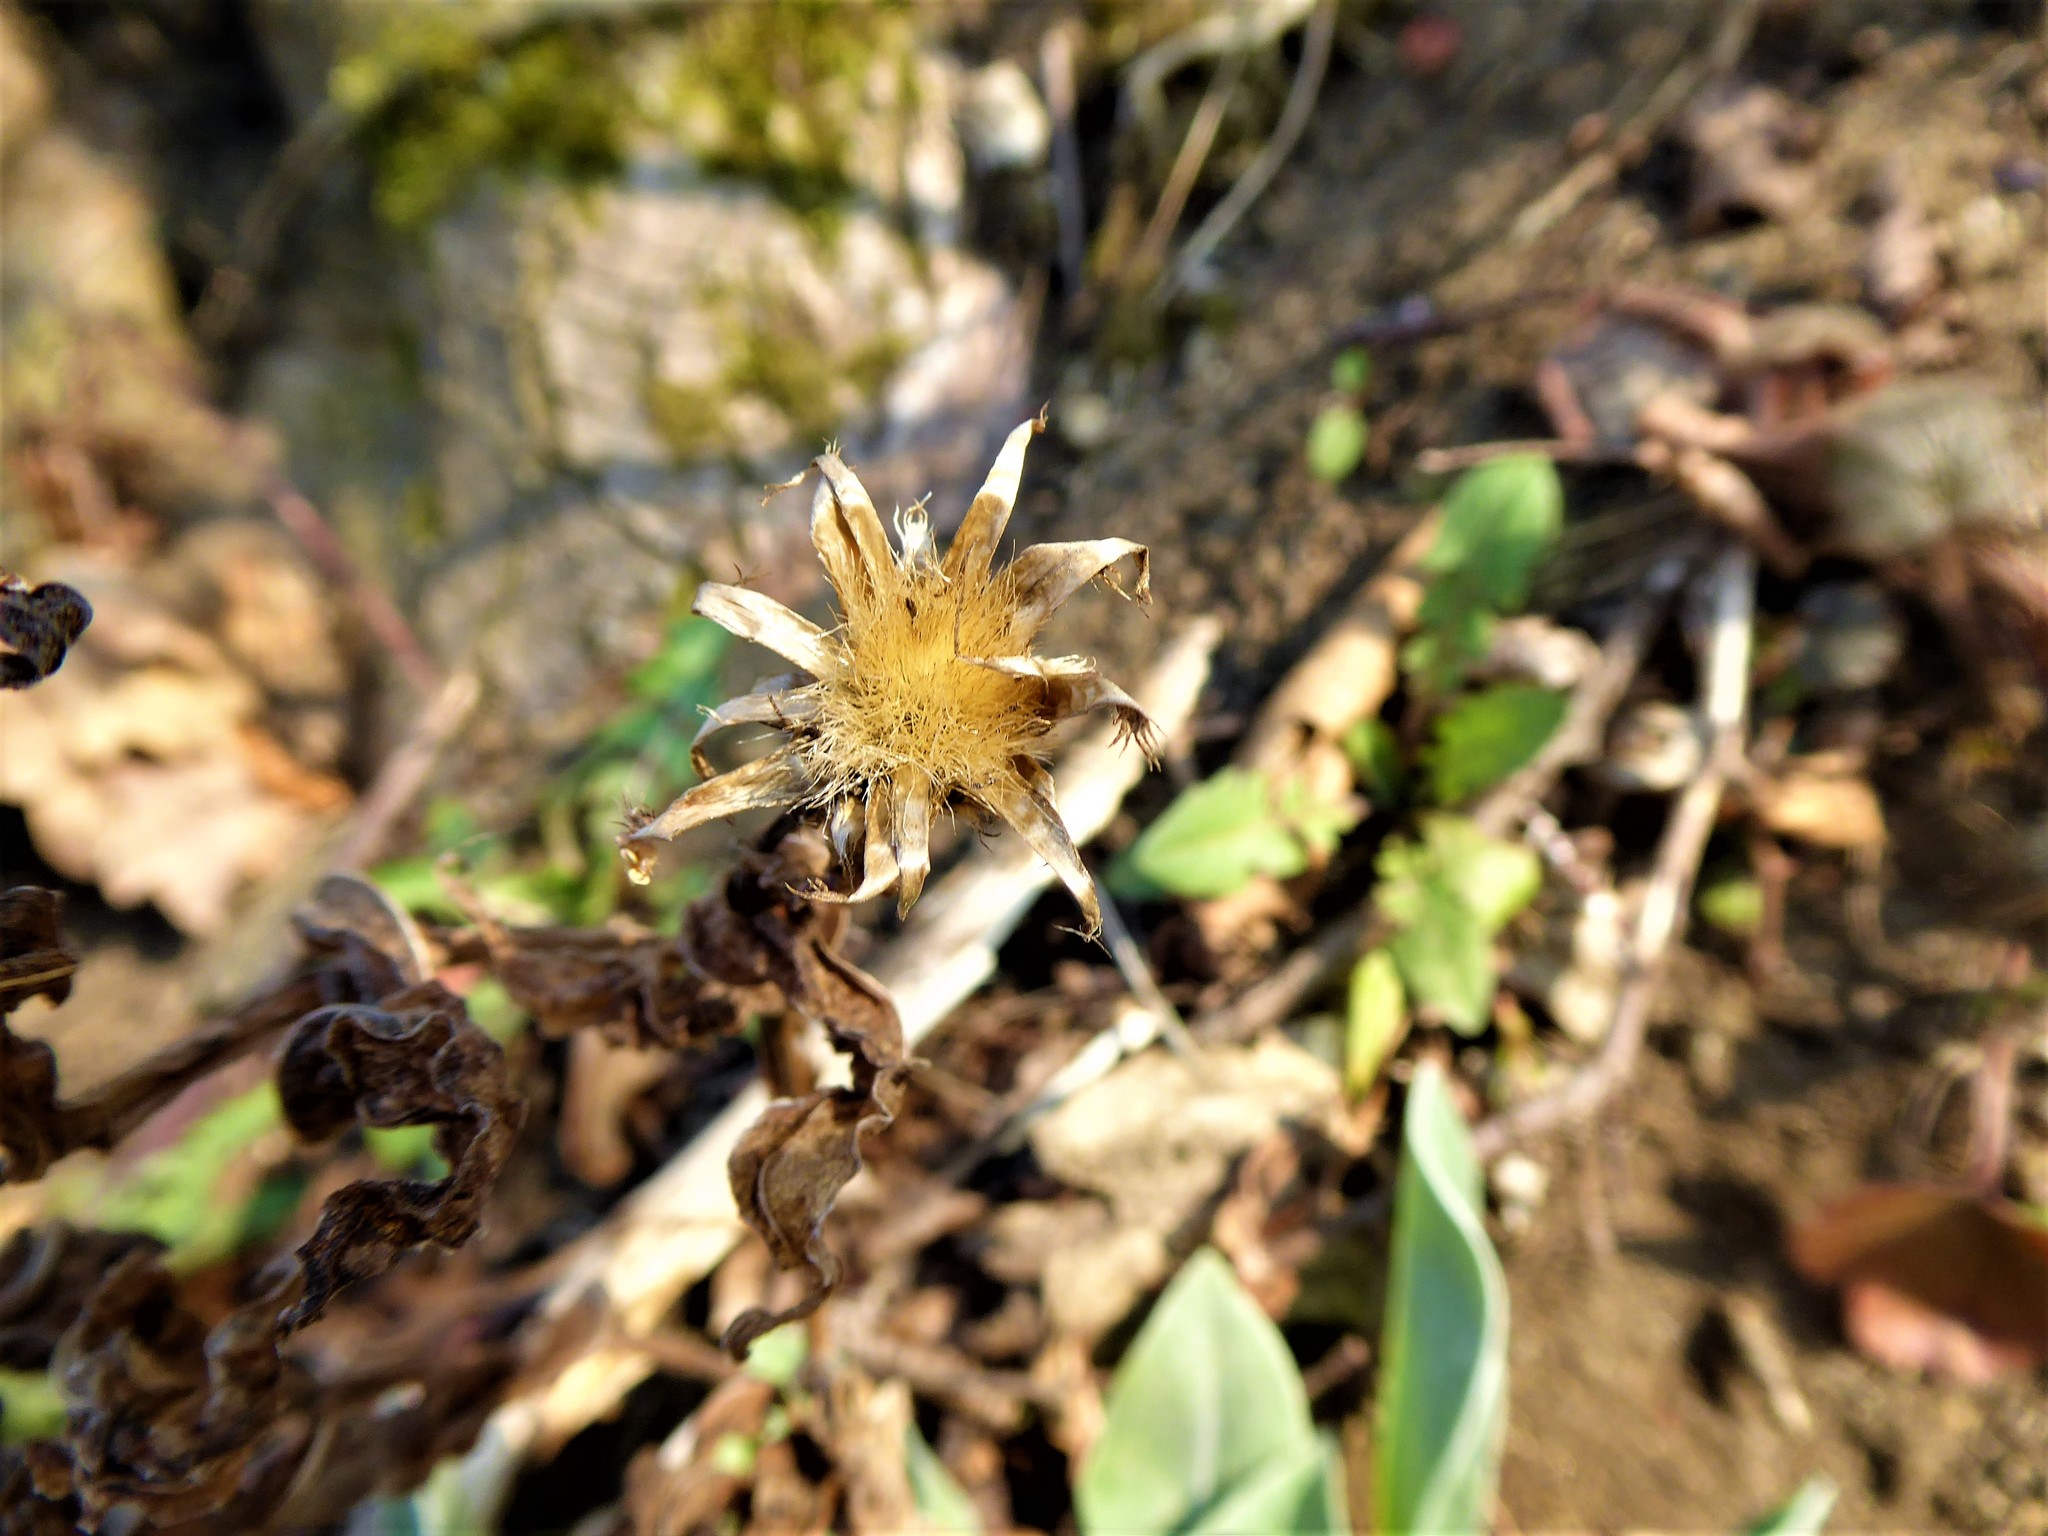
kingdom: Plantae
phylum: Tracheophyta
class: Magnoliopsida
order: Asterales
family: Asteraceae
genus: Centaurea
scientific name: Centaurea triumfettii
